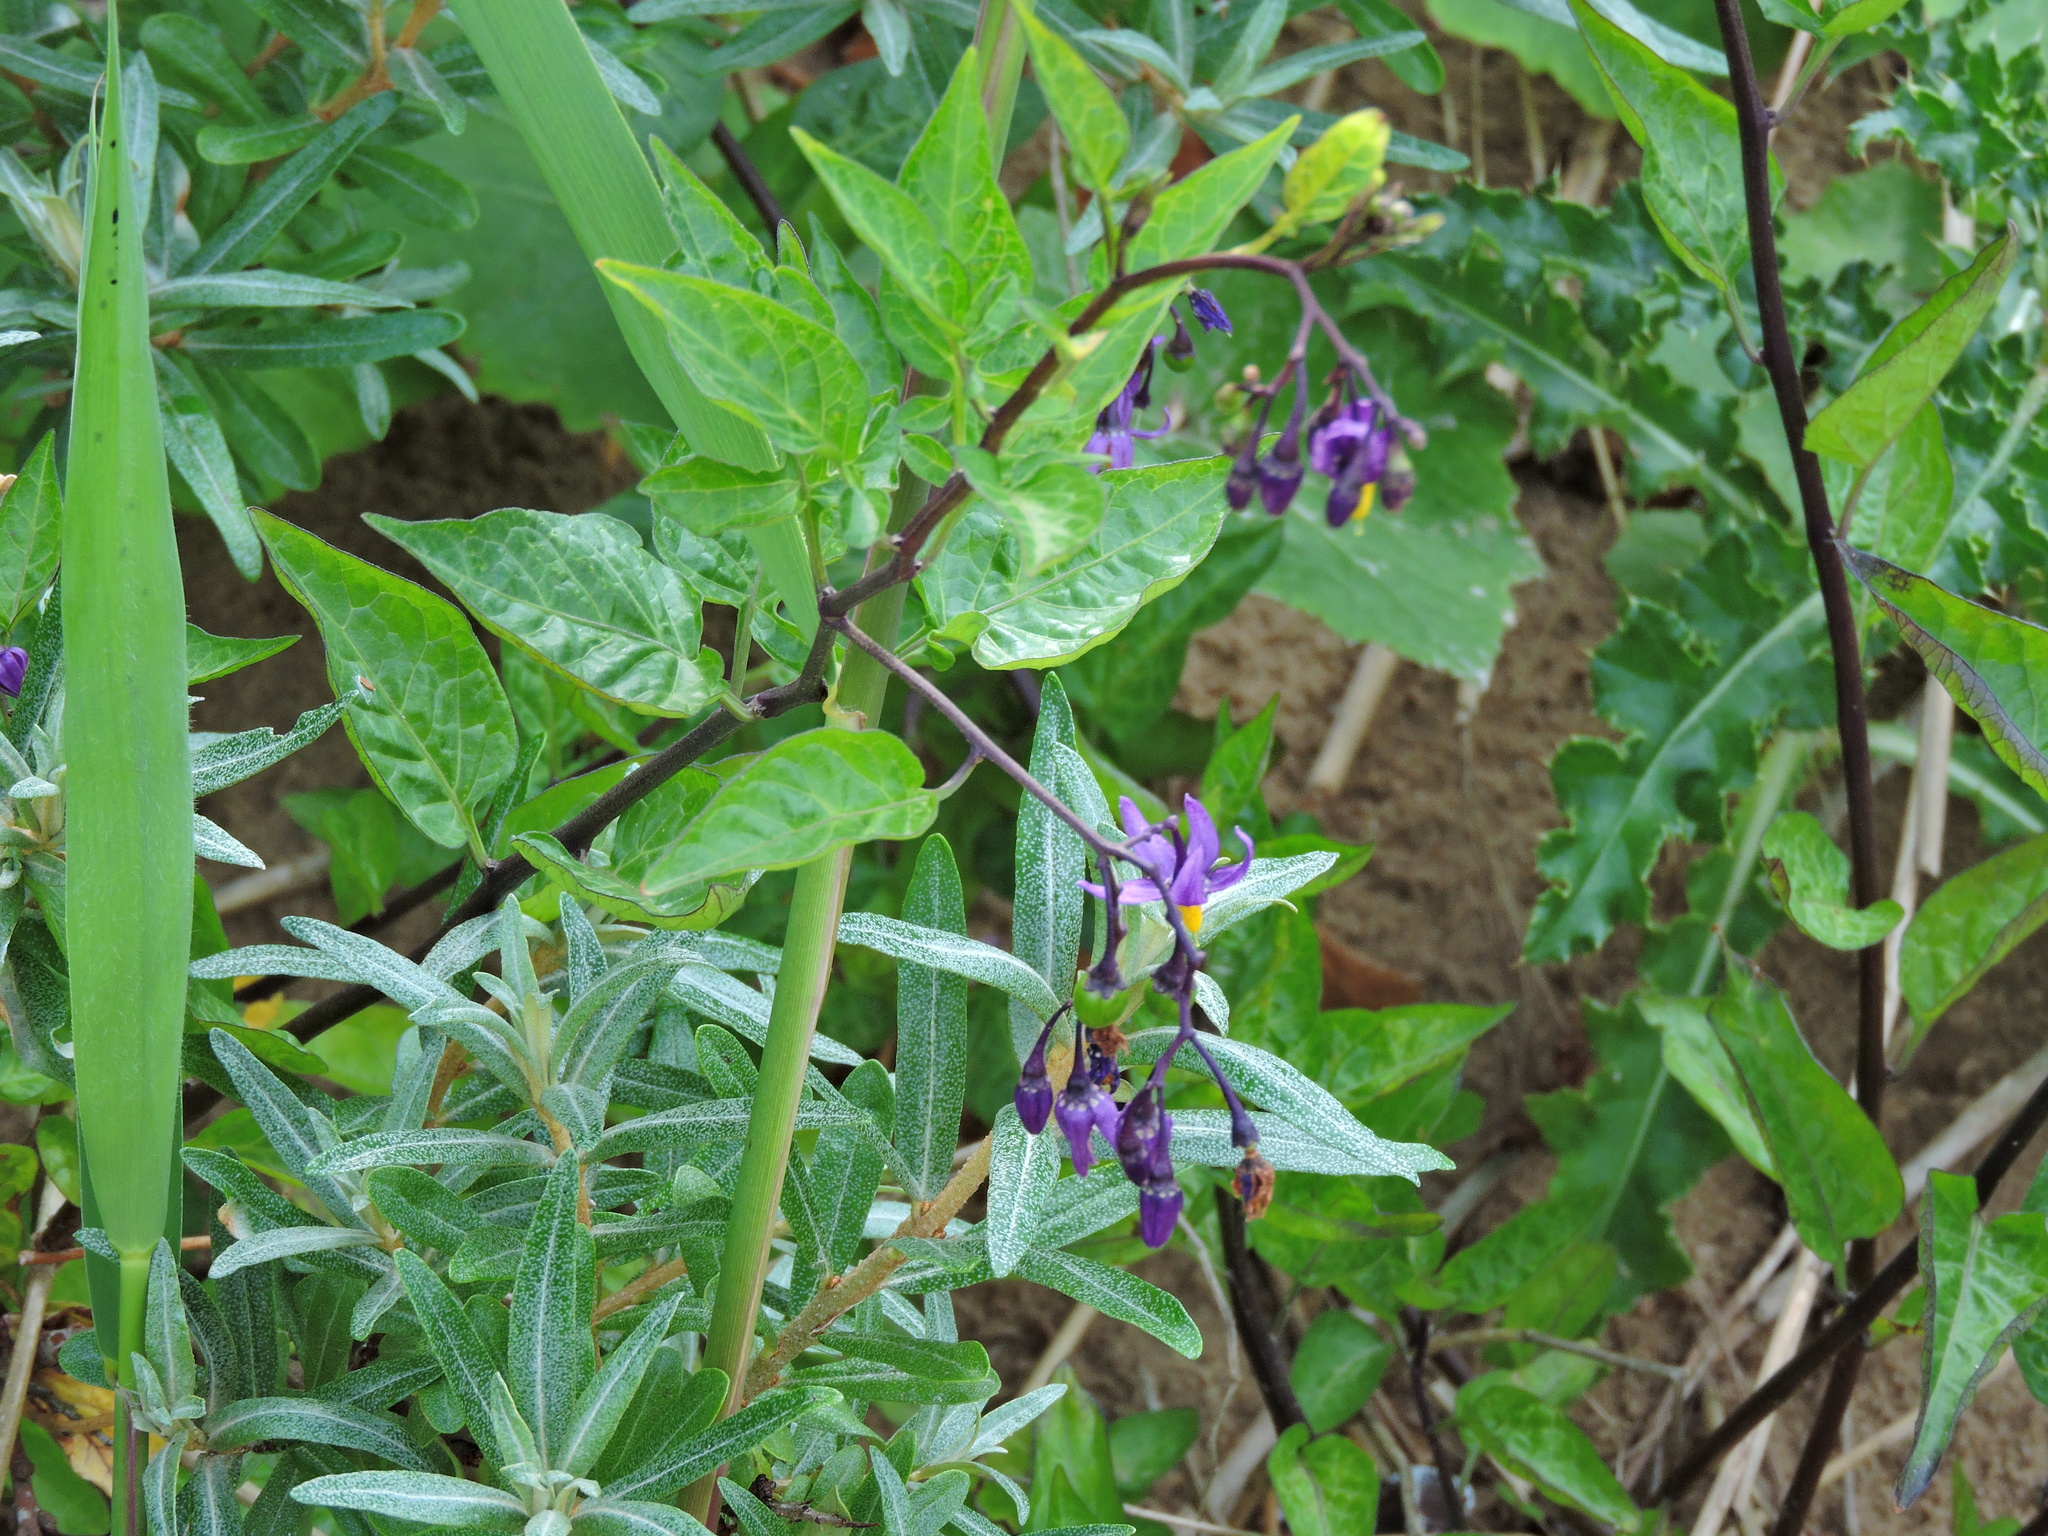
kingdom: Plantae
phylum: Tracheophyta
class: Magnoliopsida
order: Solanales
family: Solanaceae
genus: Solanum
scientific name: Solanum dulcamara
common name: Climbing nightshade
